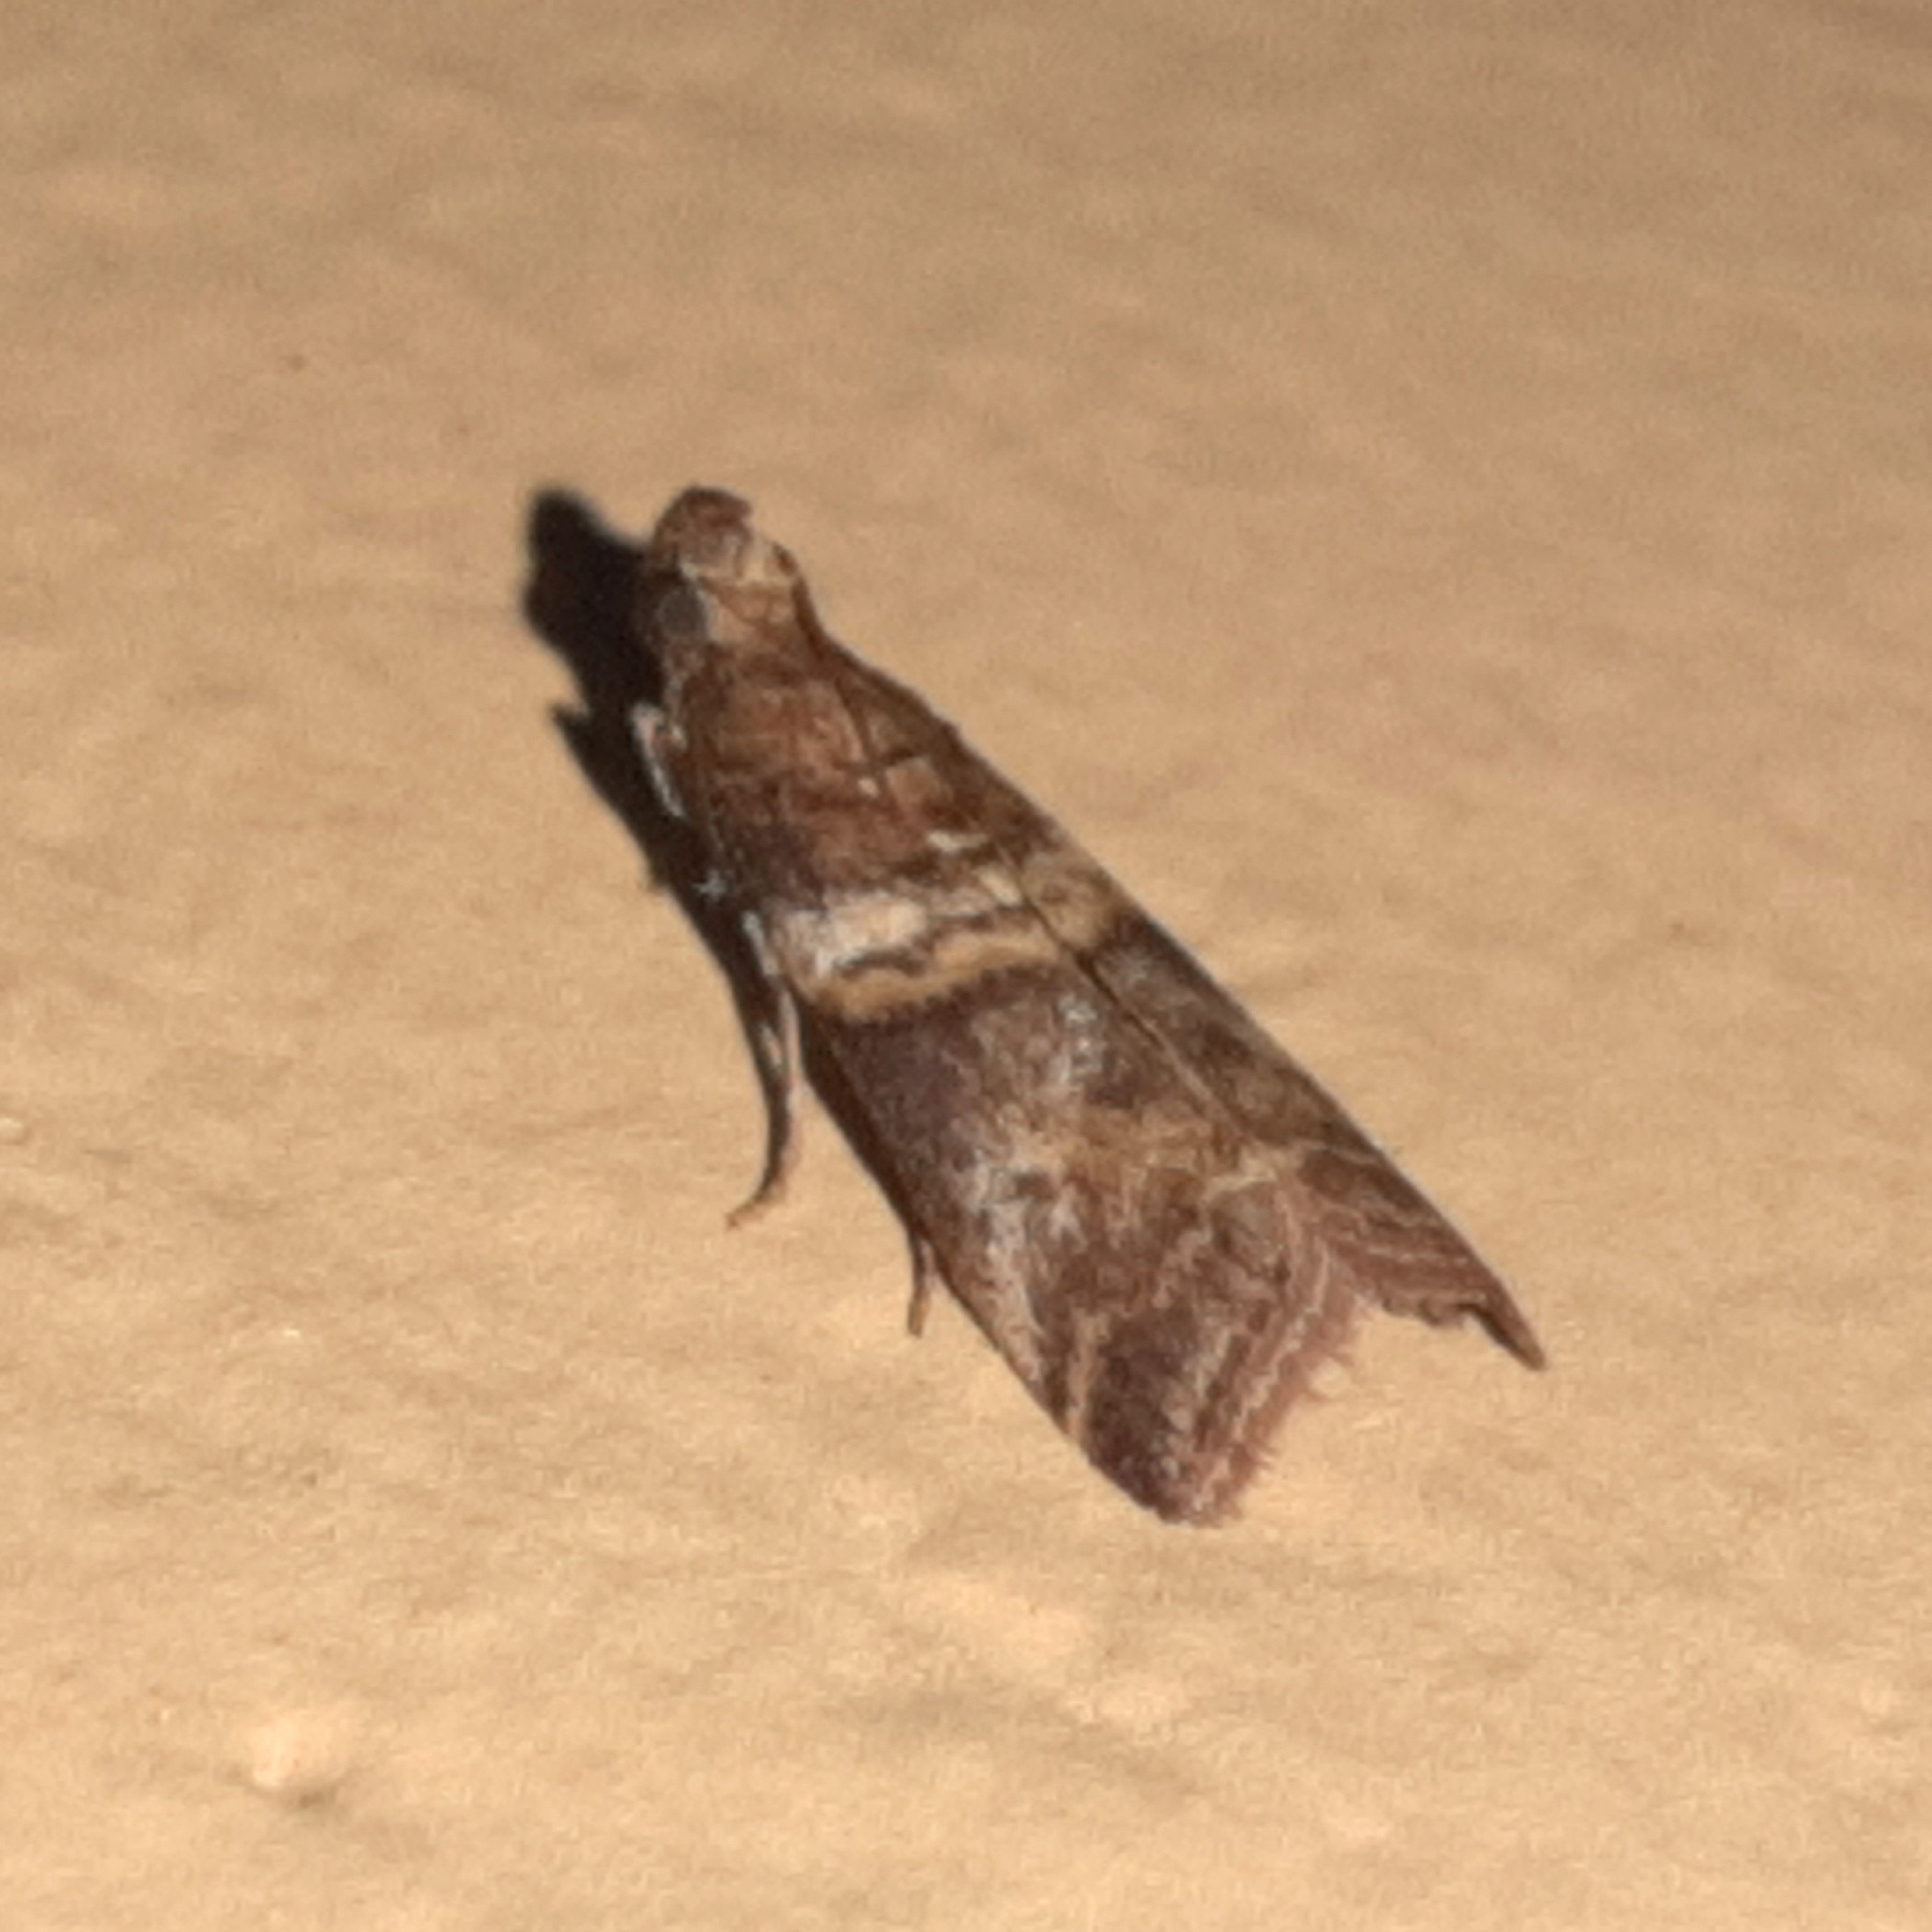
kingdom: Animalia
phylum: Arthropoda
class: Insecta
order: Lepidoptera
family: Pyralidae
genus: Davara
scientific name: Davara caricae
